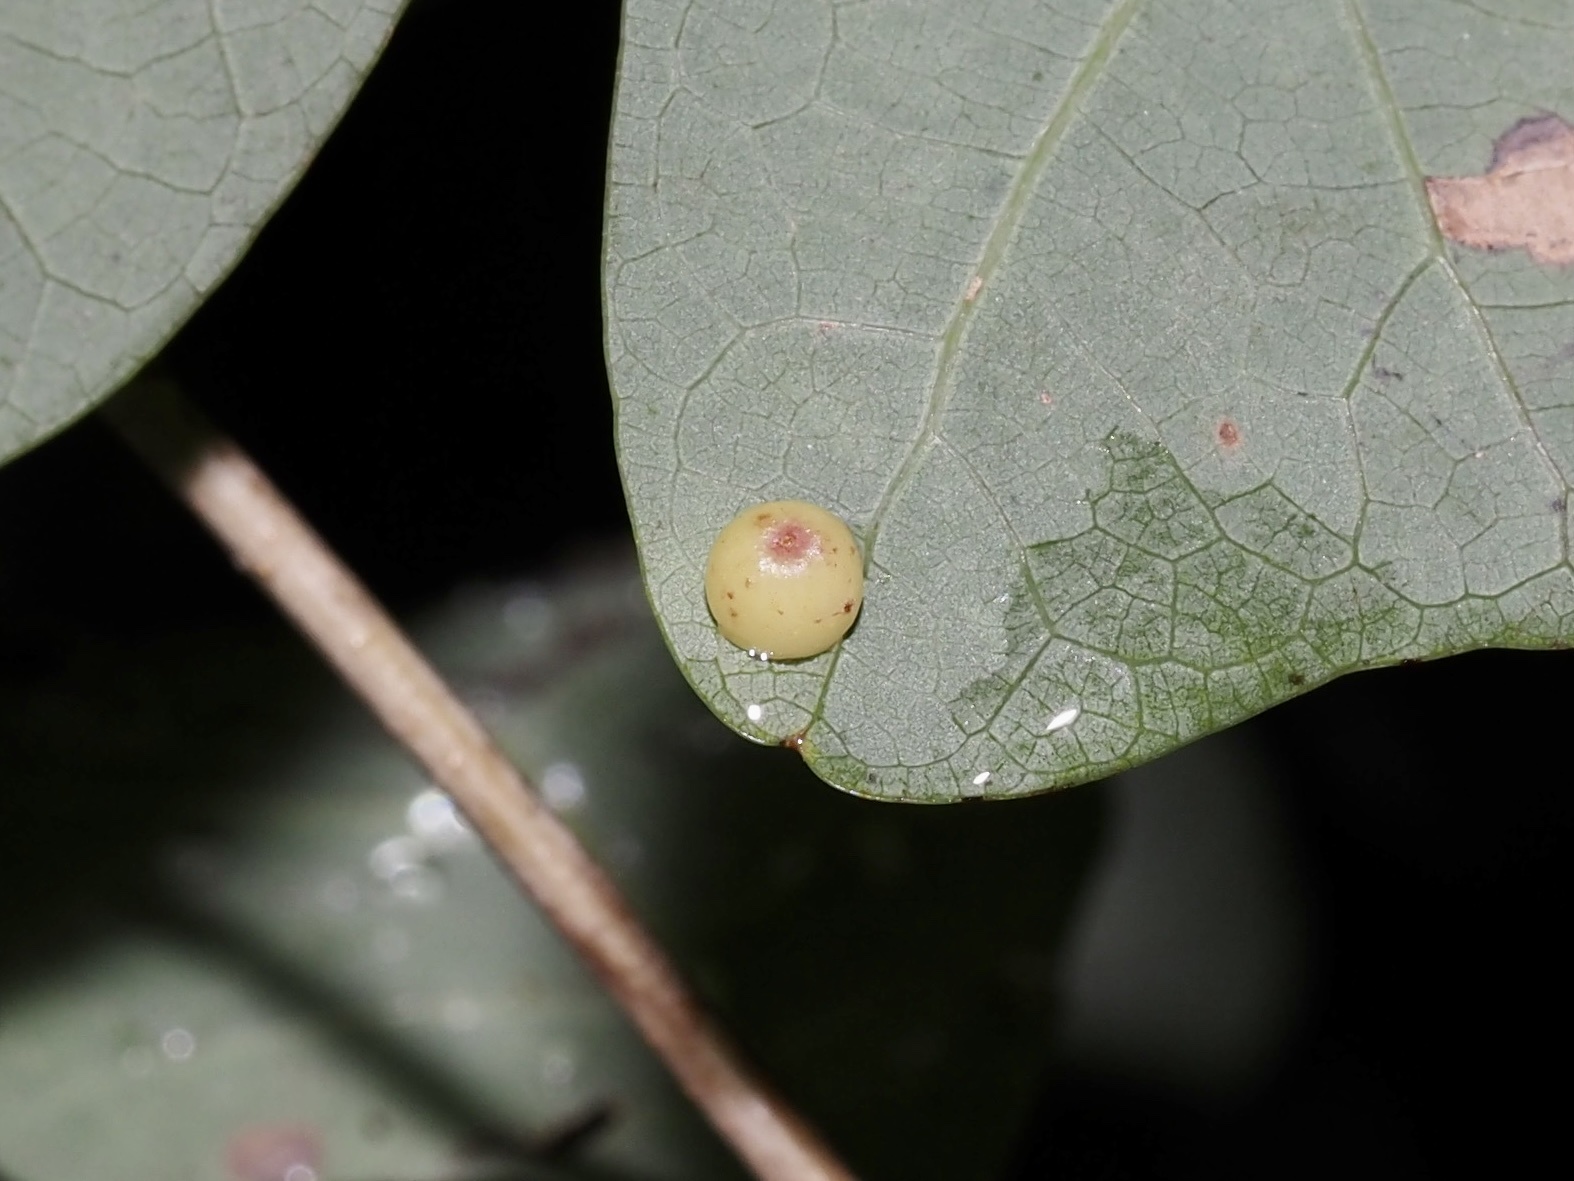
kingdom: Animalia
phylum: Arthropoda
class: Insecta
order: Hymenoptera
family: Cynipidae
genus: Andricus
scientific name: Andricus
